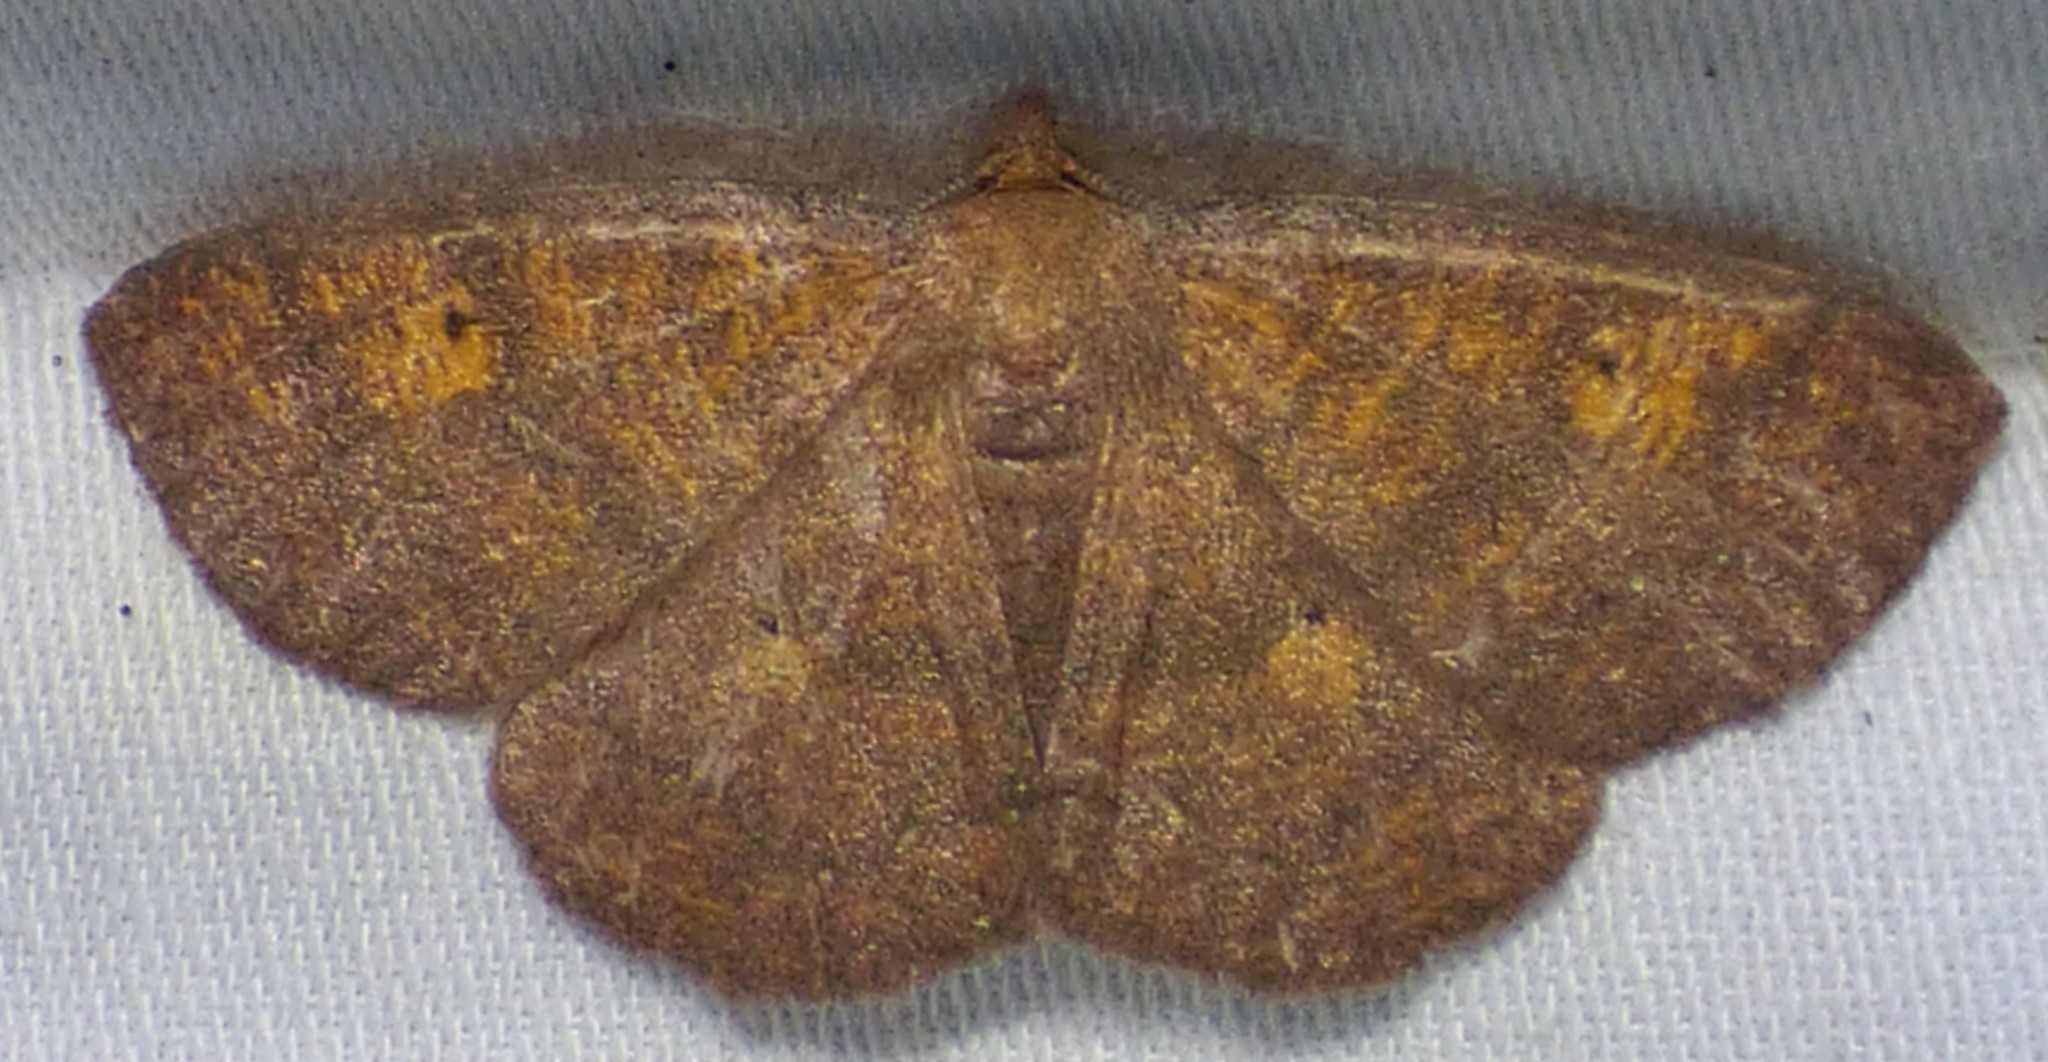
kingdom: Animalia
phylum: Arthropoda
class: Insecta
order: Lepidoptera
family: Geometridae
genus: Ilexia
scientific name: Ilexia intractata
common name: Black-dotted ruddy moth
